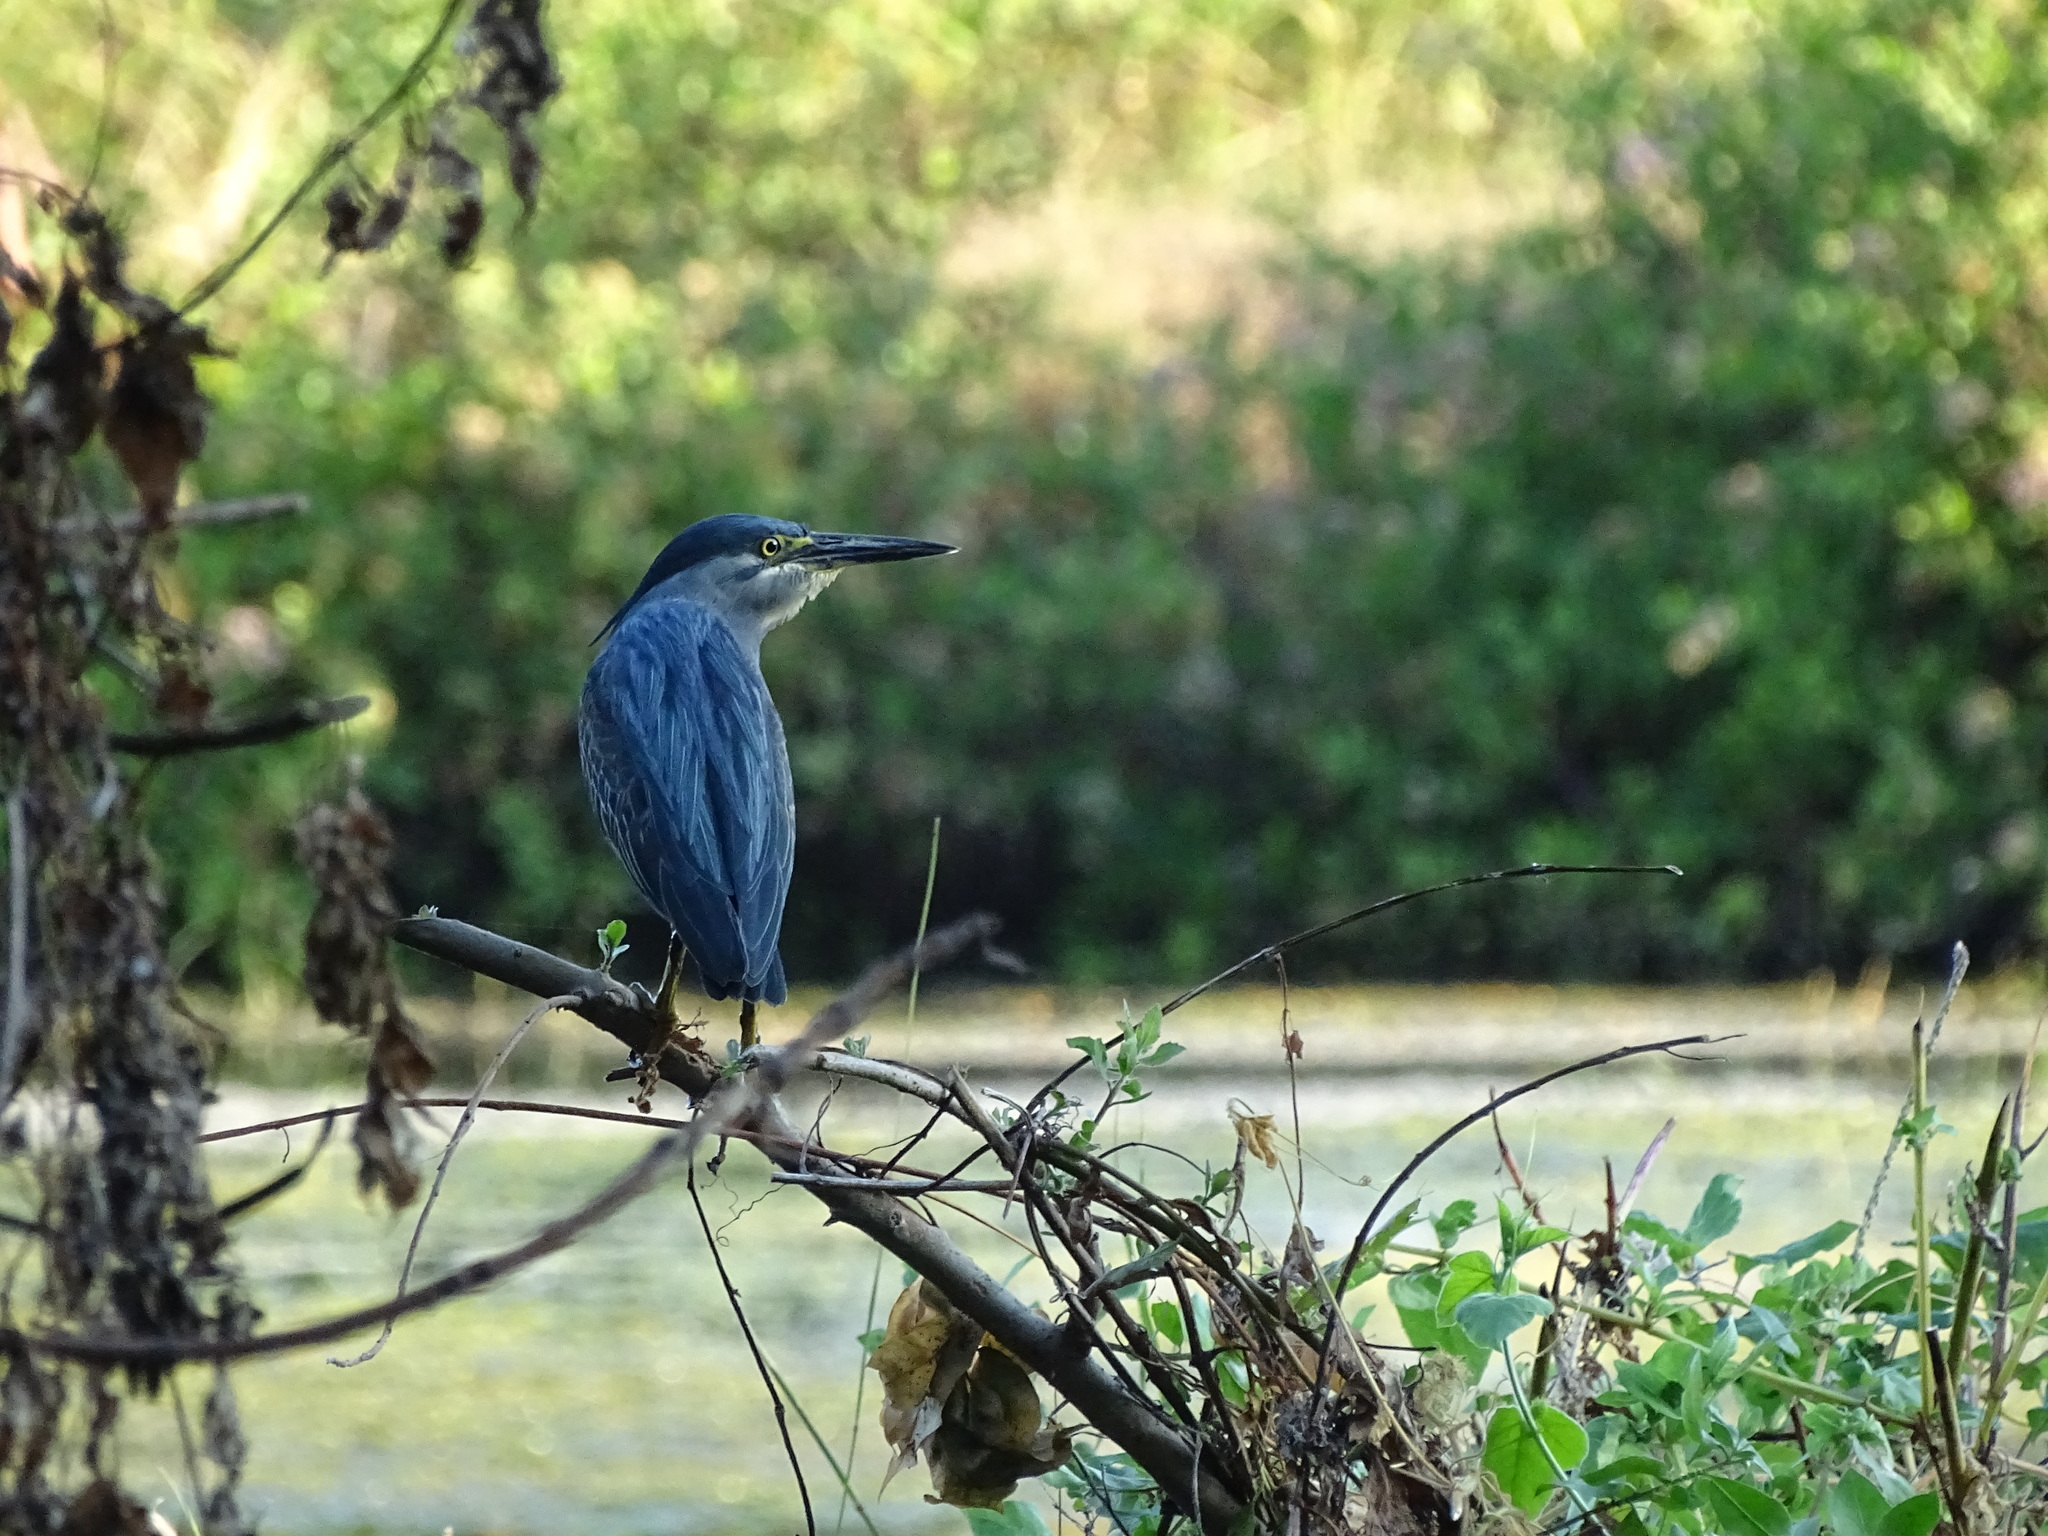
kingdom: Animalia
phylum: Chordata
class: Aves
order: Pelecaniformes
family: Ardeidae
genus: Butorides
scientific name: Butorides striata
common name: Striated heron
